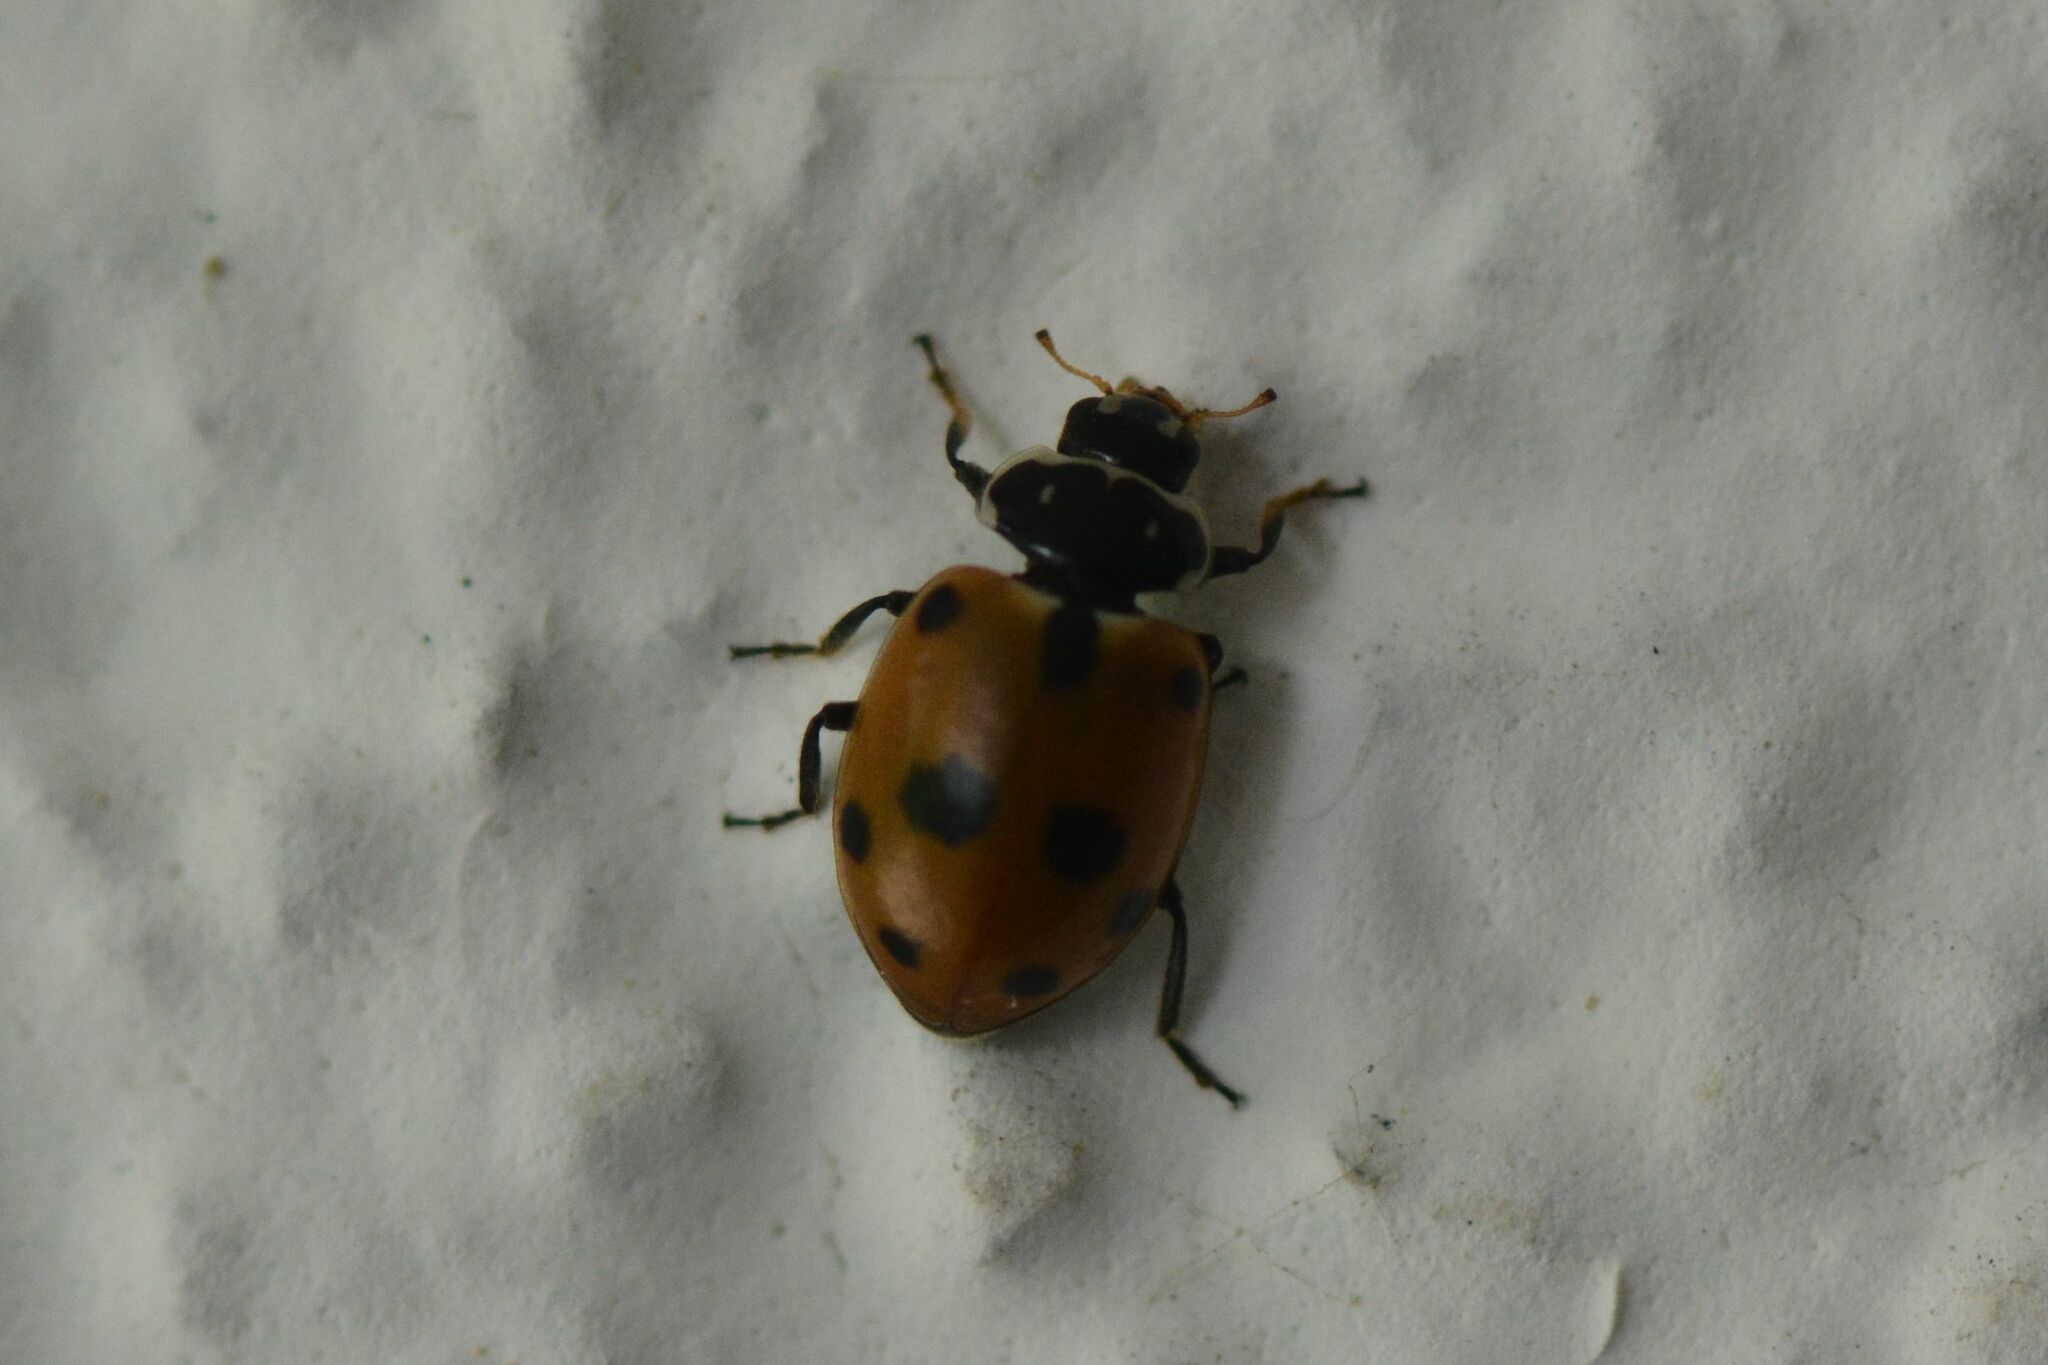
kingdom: Animalia
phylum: Arthropoda
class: Insecta
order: Coleoptera
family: Coccinellidae
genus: Hippodamia
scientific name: Hippodamia variegata
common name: Ladybird beetle
